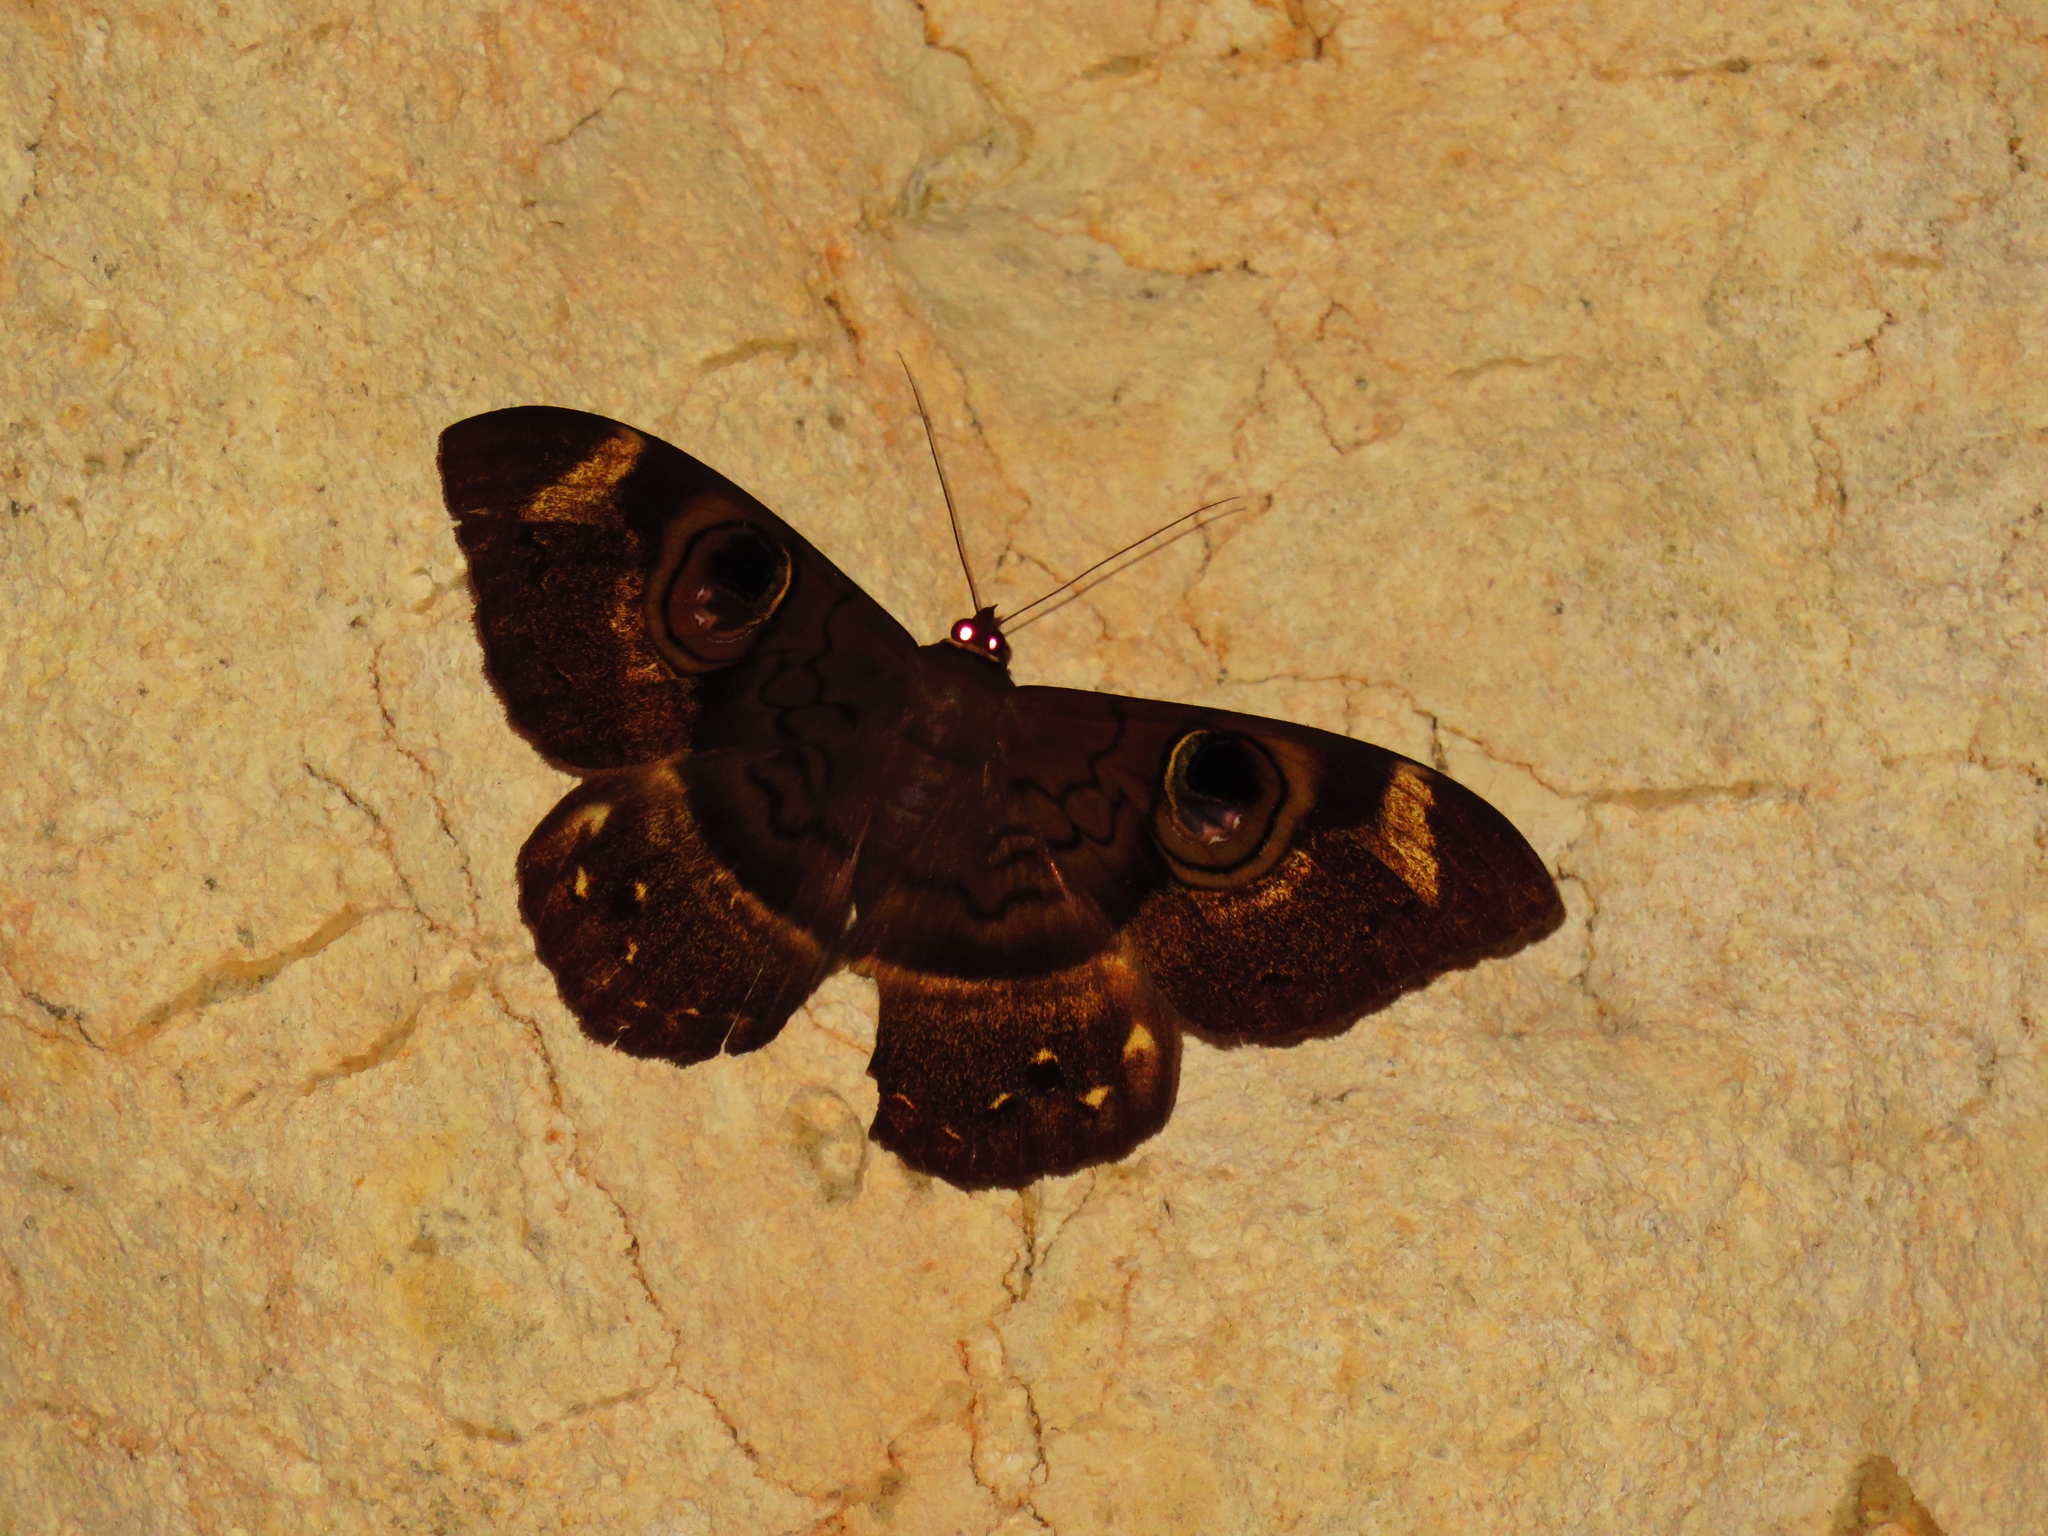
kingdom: Animalia
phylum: Arthropoda
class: Insecta
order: Lepidoptera
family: Erebidae
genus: Cyligramma
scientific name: Cyligramma duplex
